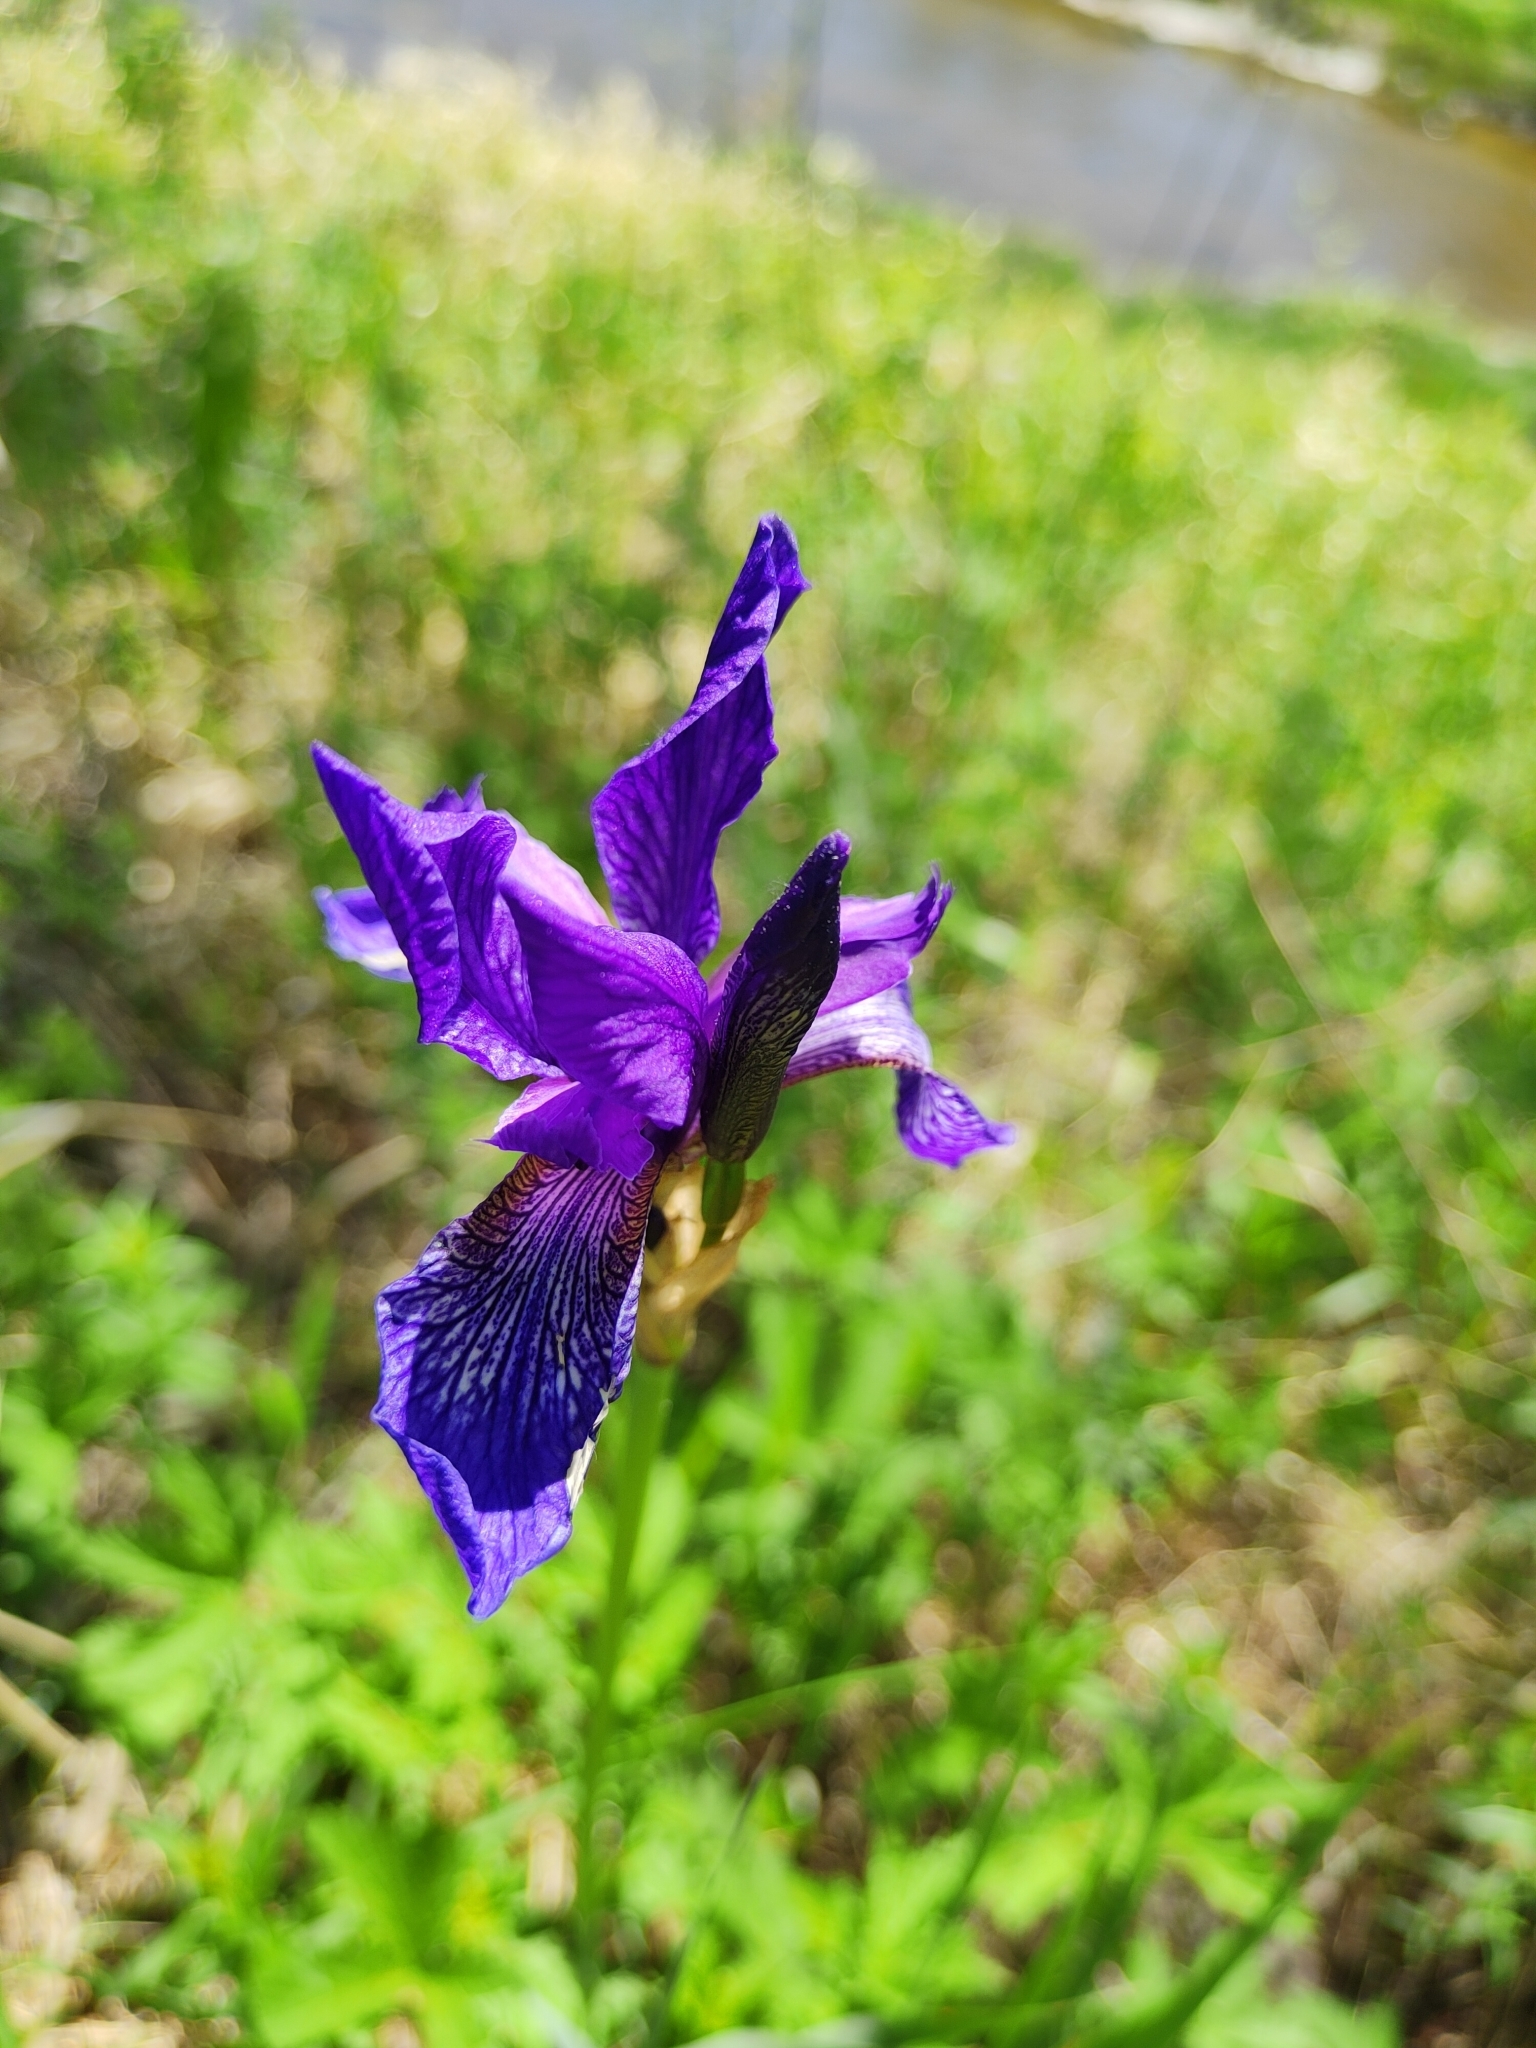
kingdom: Plantae
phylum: Tracheophyta
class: Liliopsida
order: Asparagales
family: Iridaceae
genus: Iris
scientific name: Iris sibirica
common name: Siberian iris
